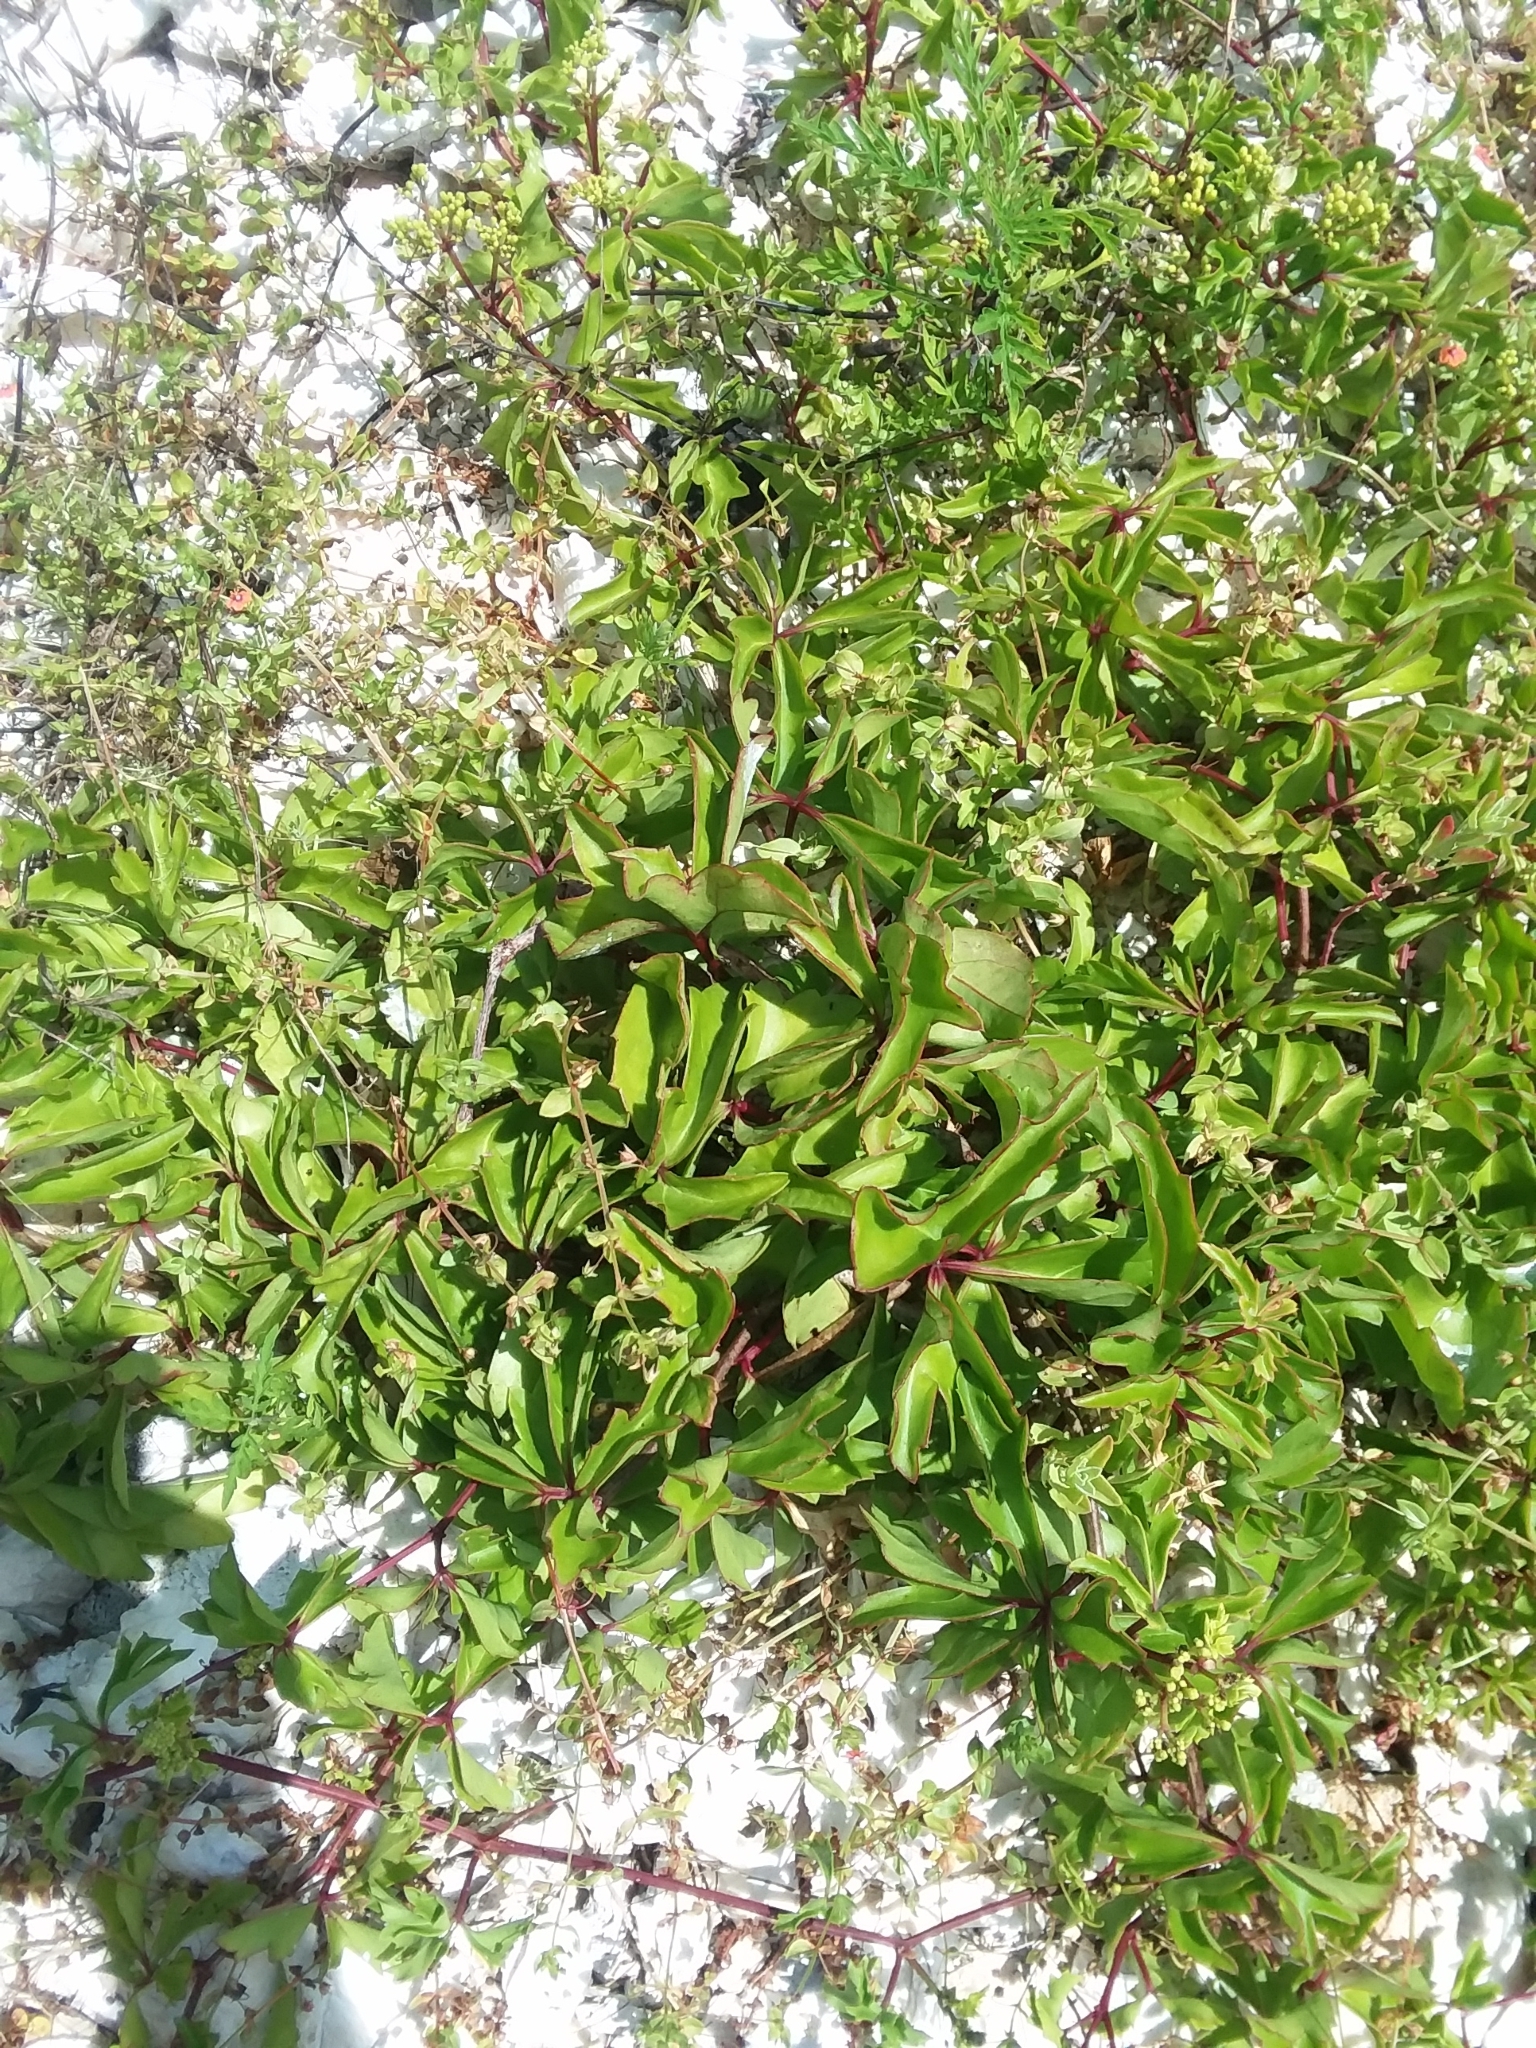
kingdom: Plantae
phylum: Tracheophyta
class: Magnoliopsida
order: Vitales
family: Vitaceae
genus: Cissus
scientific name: Cissus trifoliata
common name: Vine-sorrel
